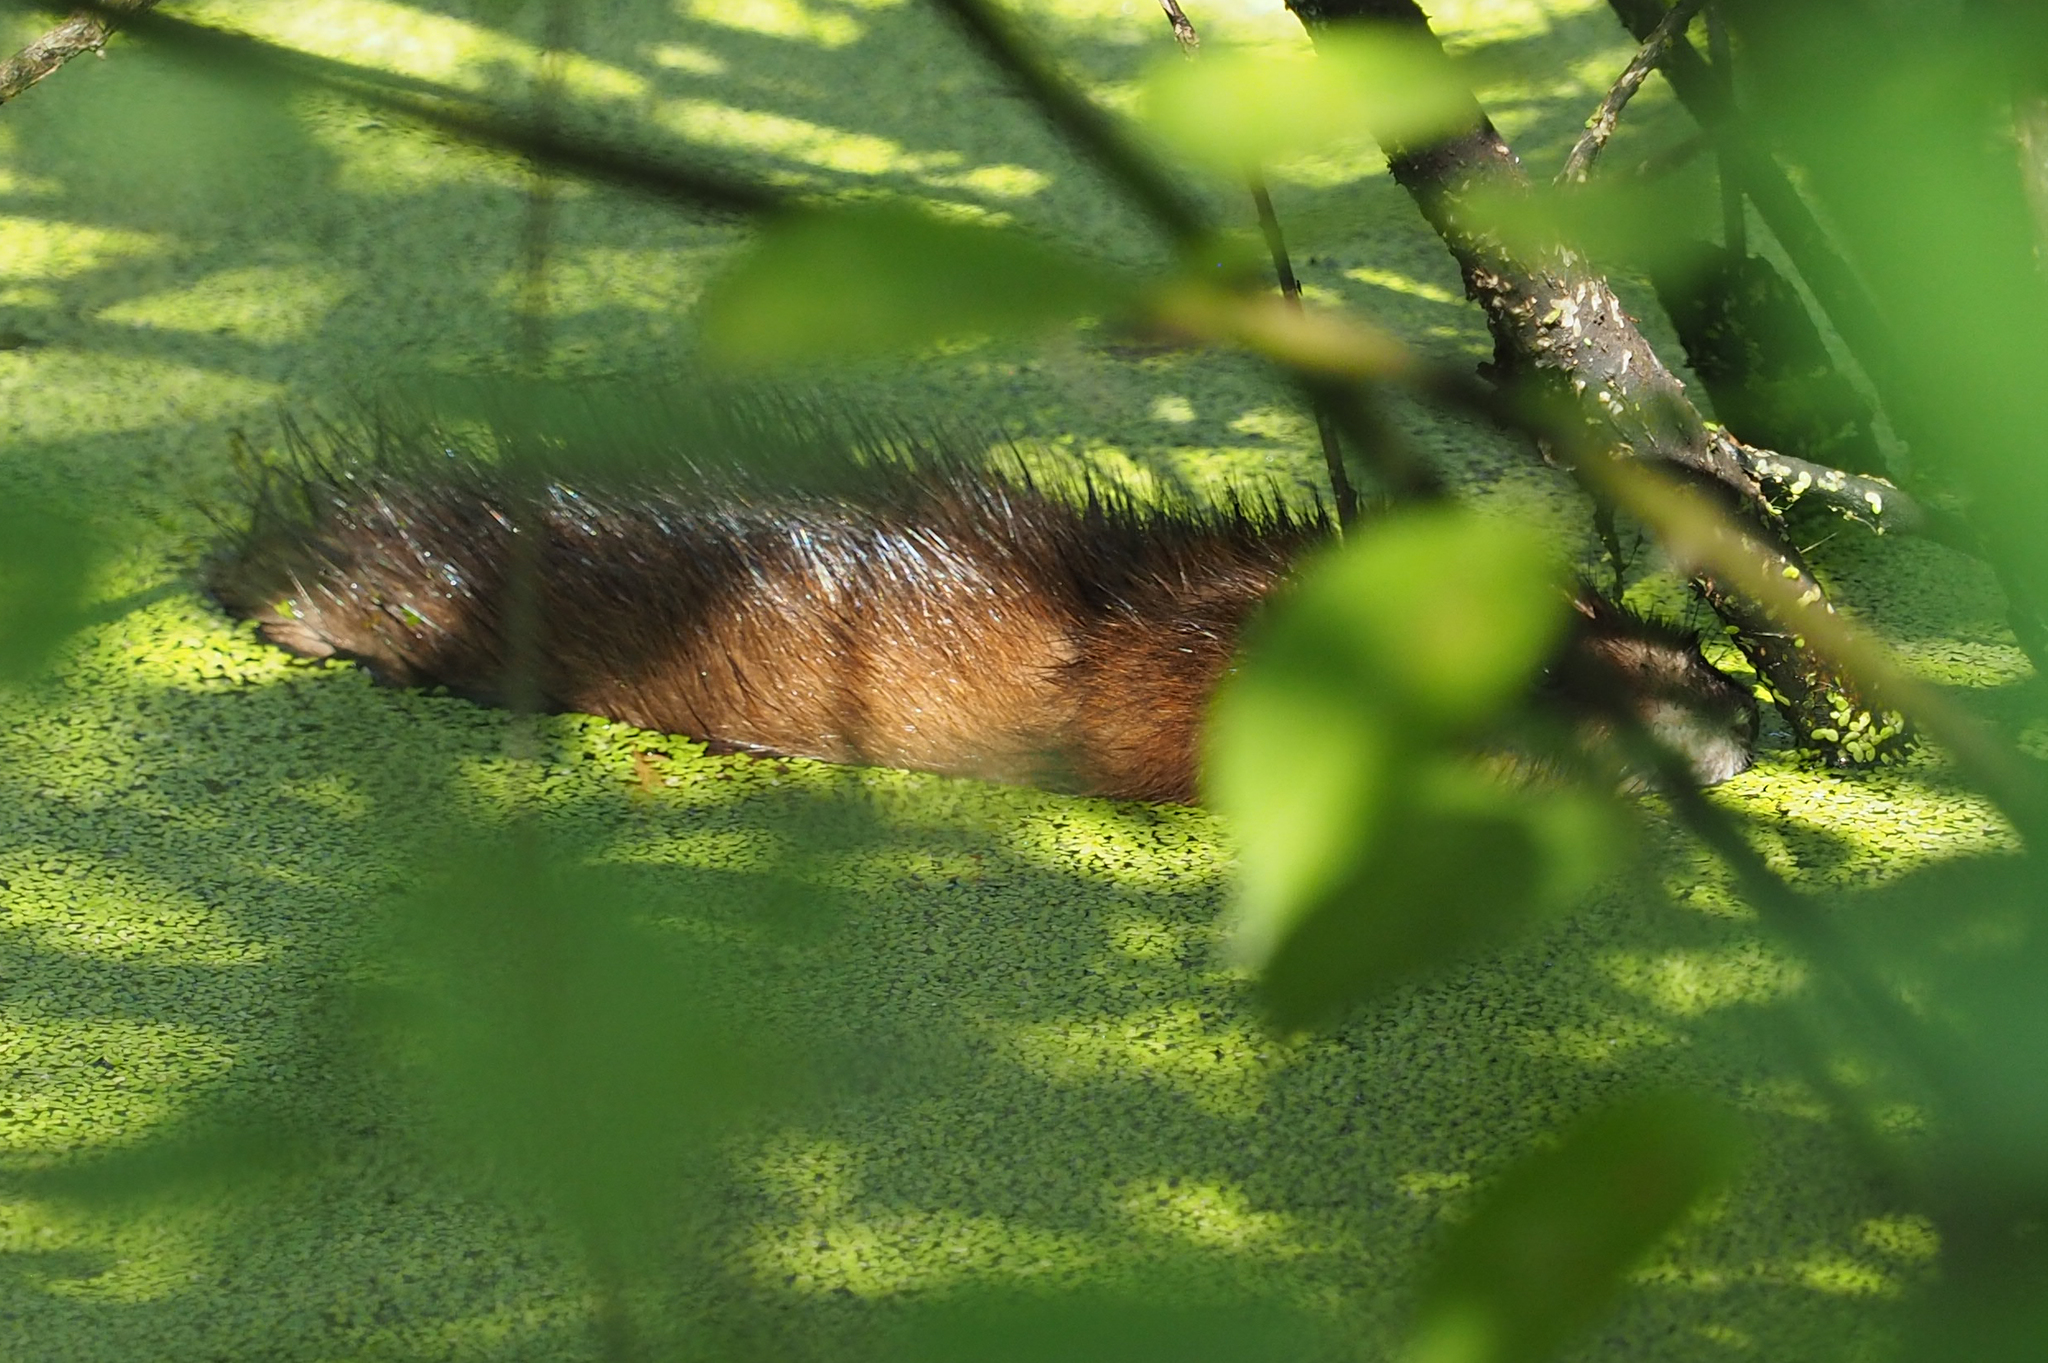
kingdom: Animalia
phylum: Chordata
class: Mammalia
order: Rodentia
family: Cricetidae
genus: Ondatra
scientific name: Ondatra zibethicus
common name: Muskrat
